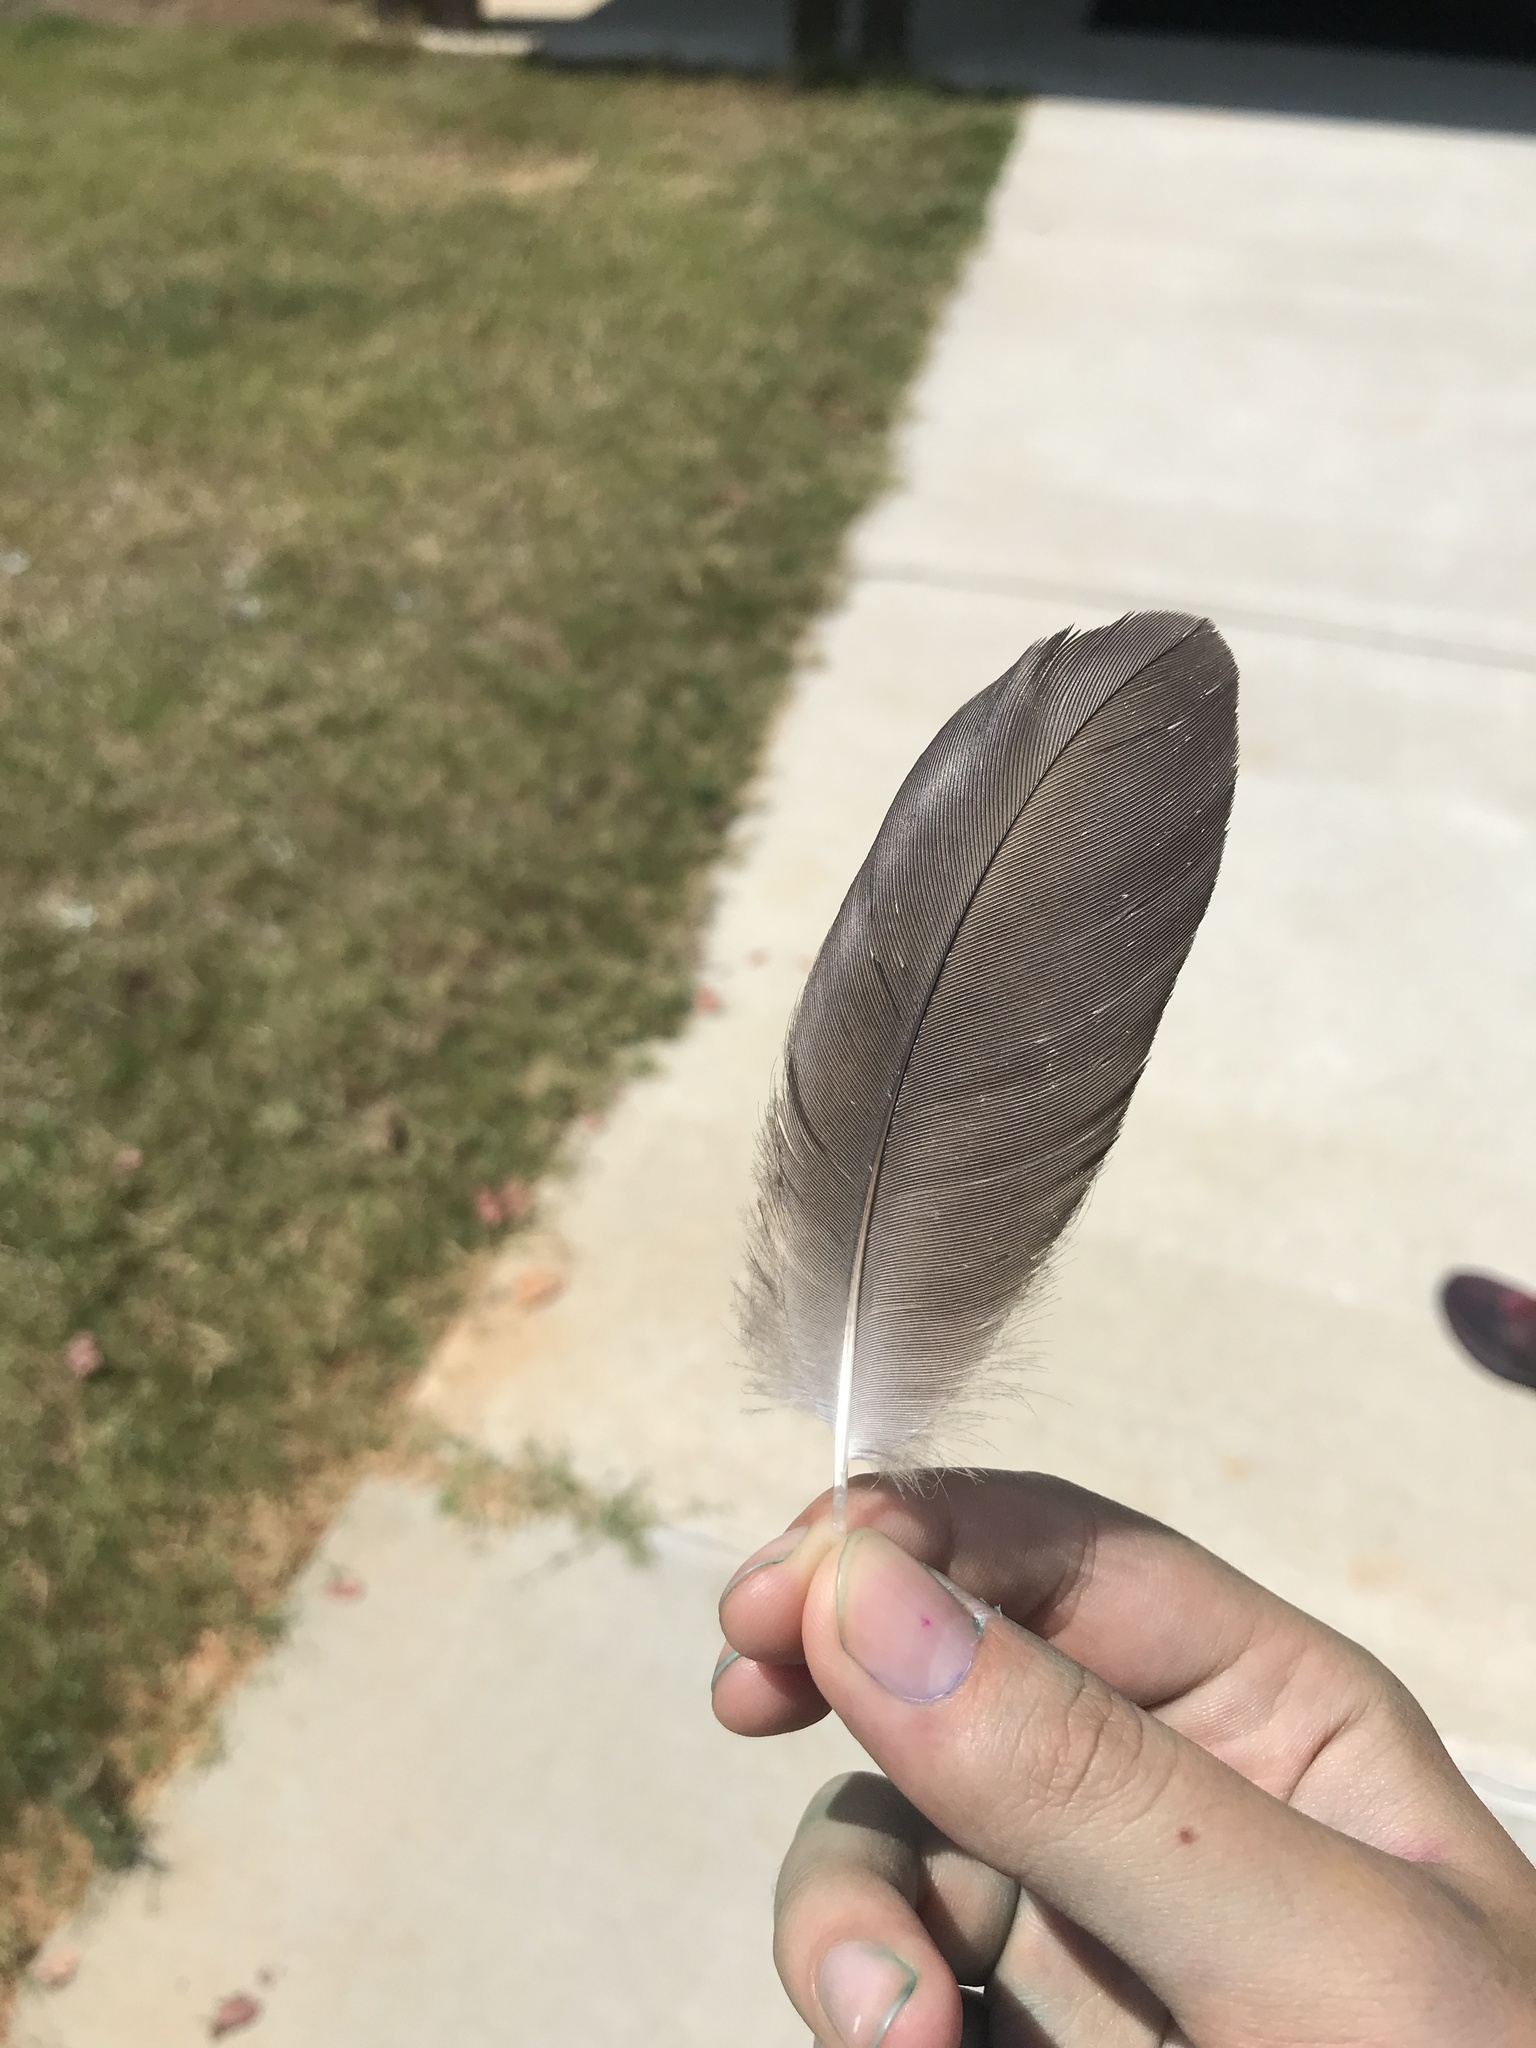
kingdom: Animalia
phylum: Chordata
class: Aves
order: Accipitriformes
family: Cathartidae
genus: Coragyps
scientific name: Coragyps atratus
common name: Black vulture
